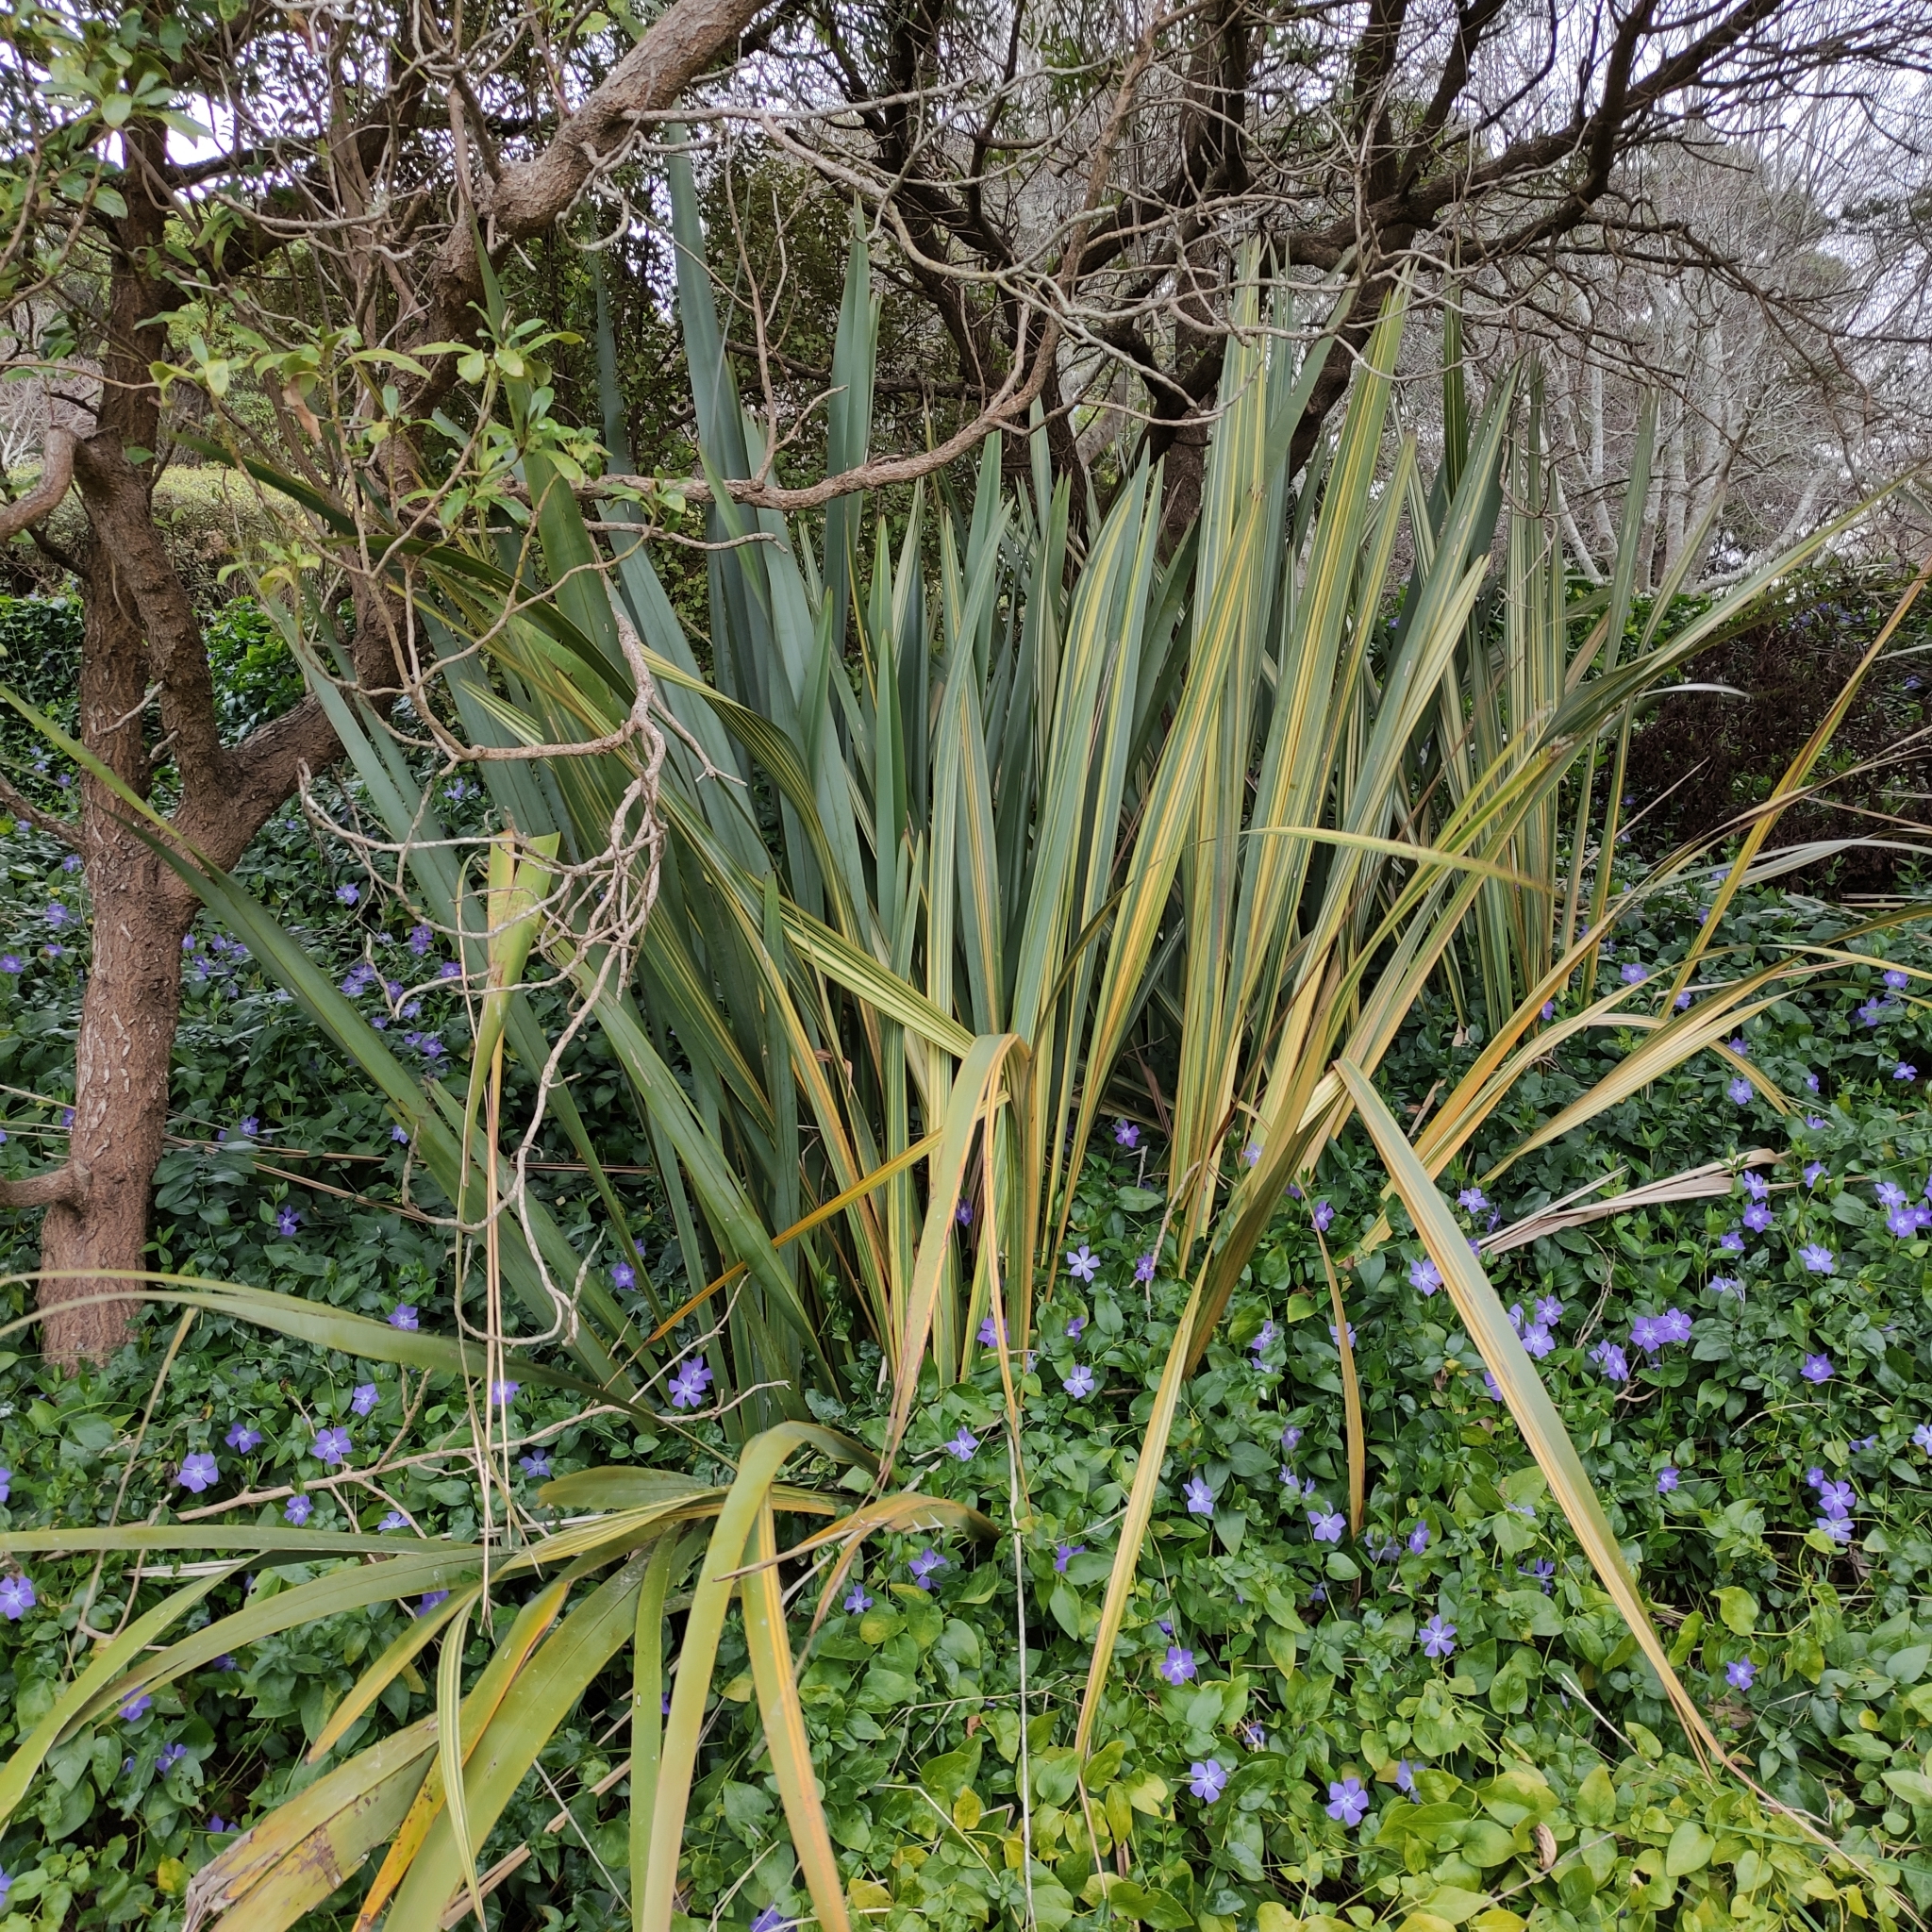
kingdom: Plantae
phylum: Tracheophyta
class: Liliopsida
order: Asparagales
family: Asphodelaceae
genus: Phormium
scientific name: Phormium tenax
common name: New zealand flax
